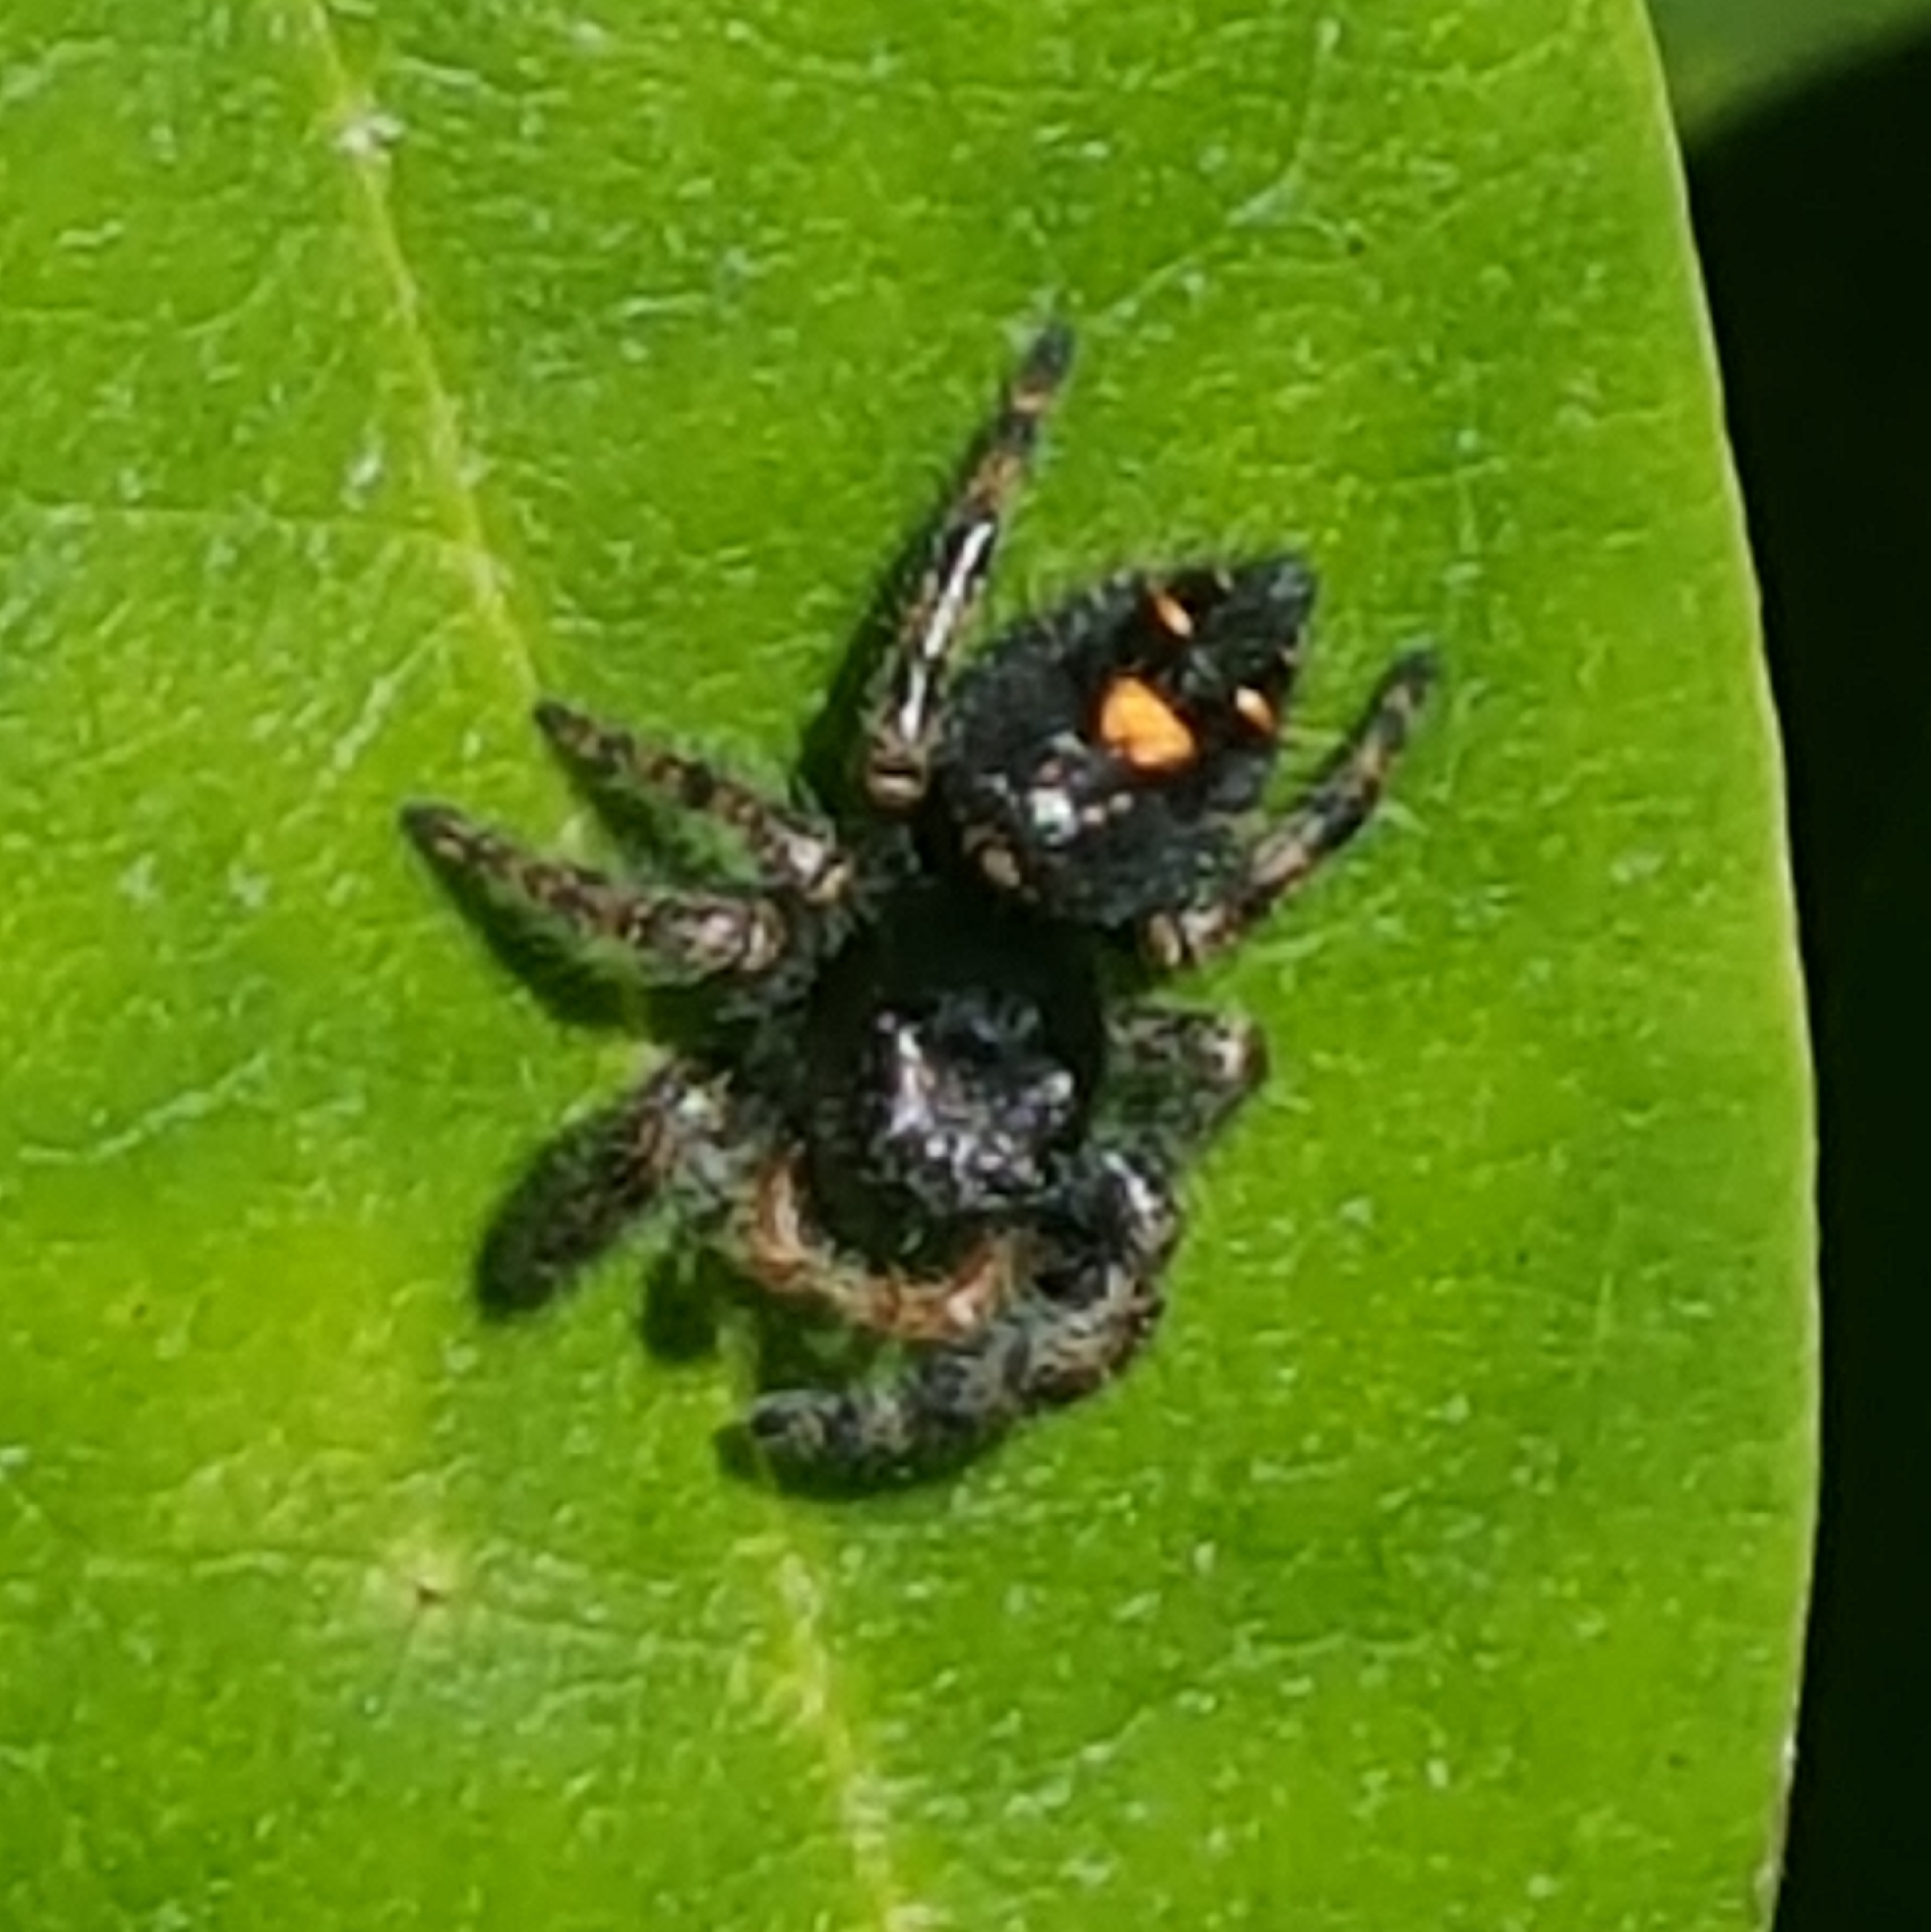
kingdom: Animalia
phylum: Arthropoda
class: Arachnida
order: Araneae
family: Salticidae
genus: Phidippus
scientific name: Phidippus audax
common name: Bold jumper
